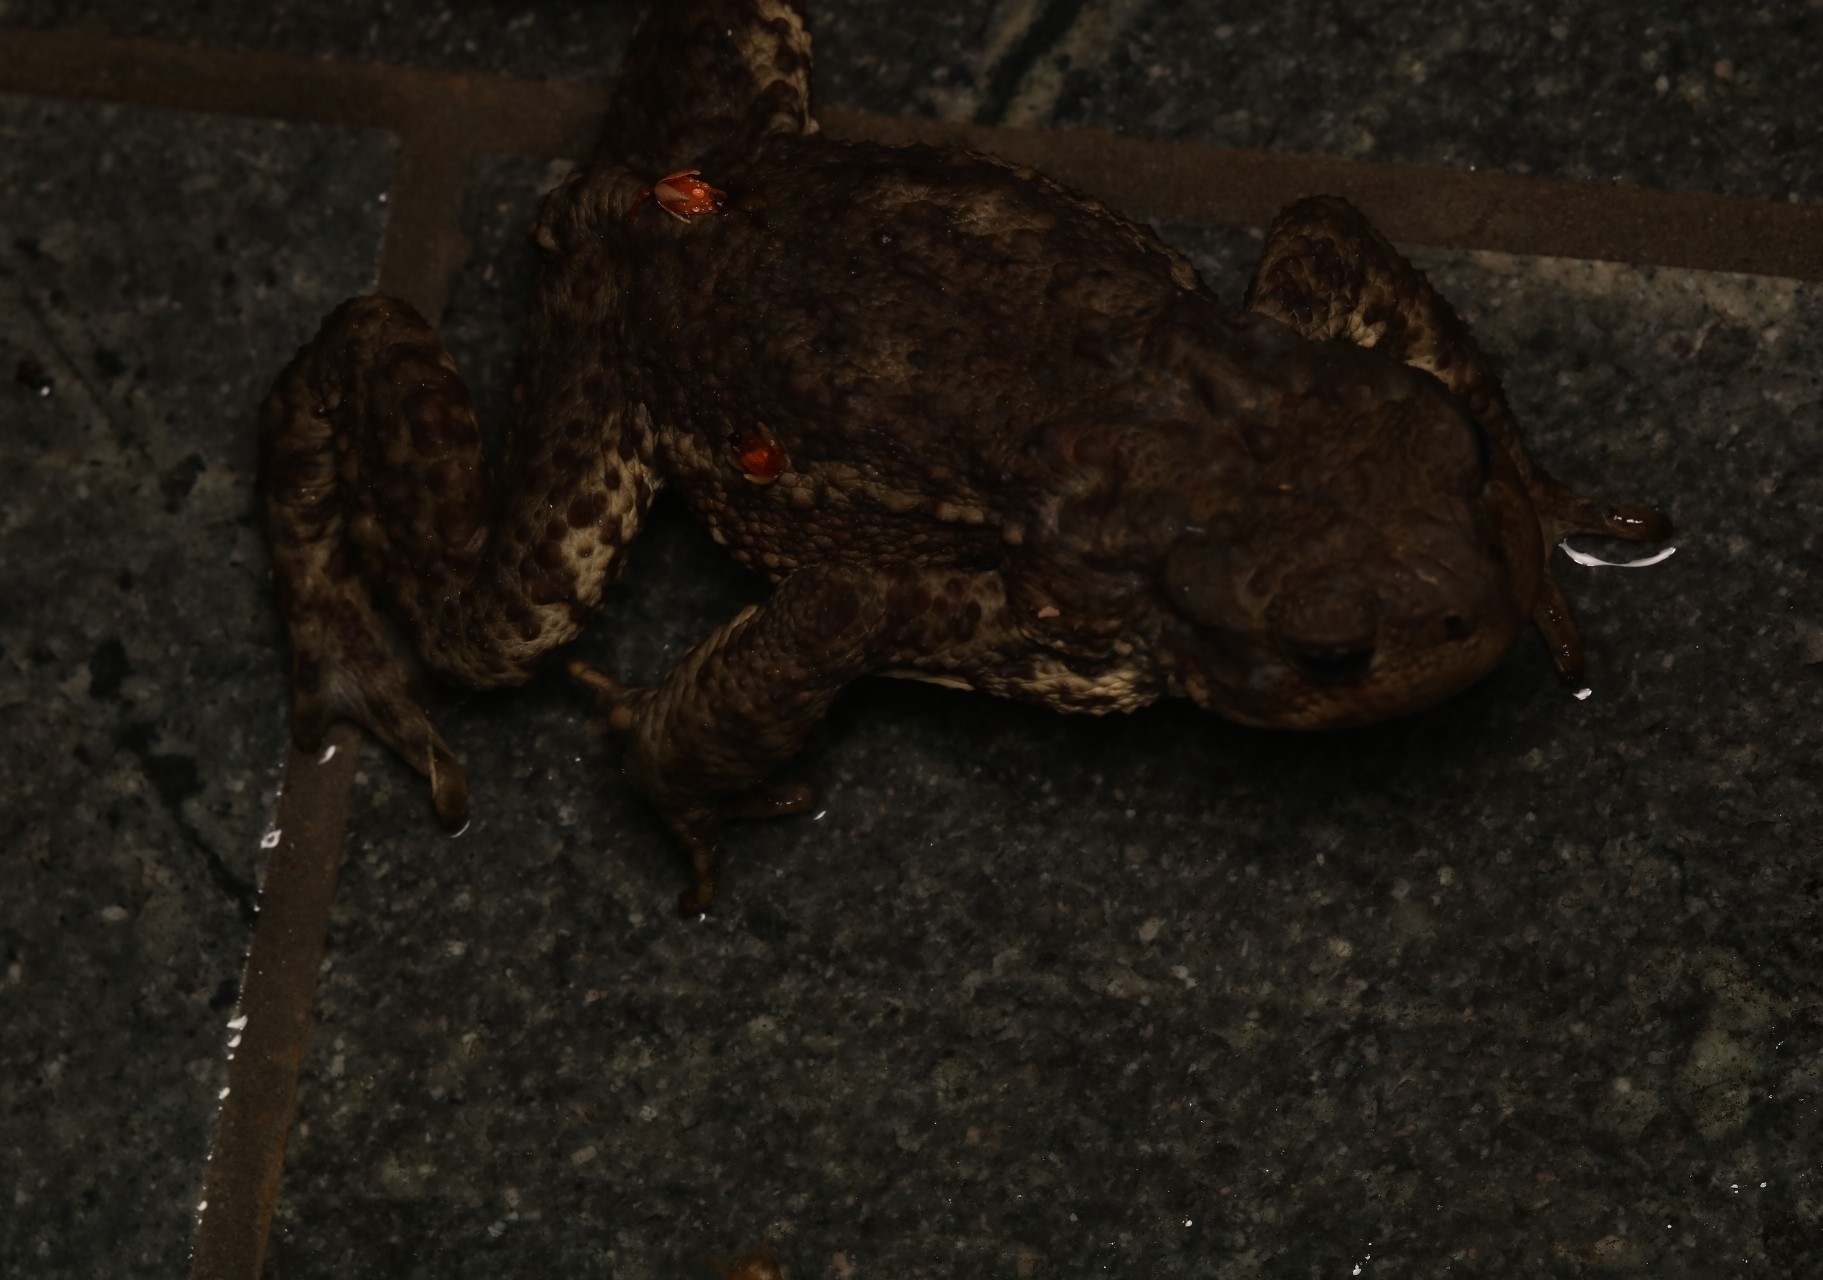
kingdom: Animalia
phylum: Chordata
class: Amphibia
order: Anura
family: Bufonidae
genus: Bufo
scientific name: Bufo bufo
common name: Common toad
